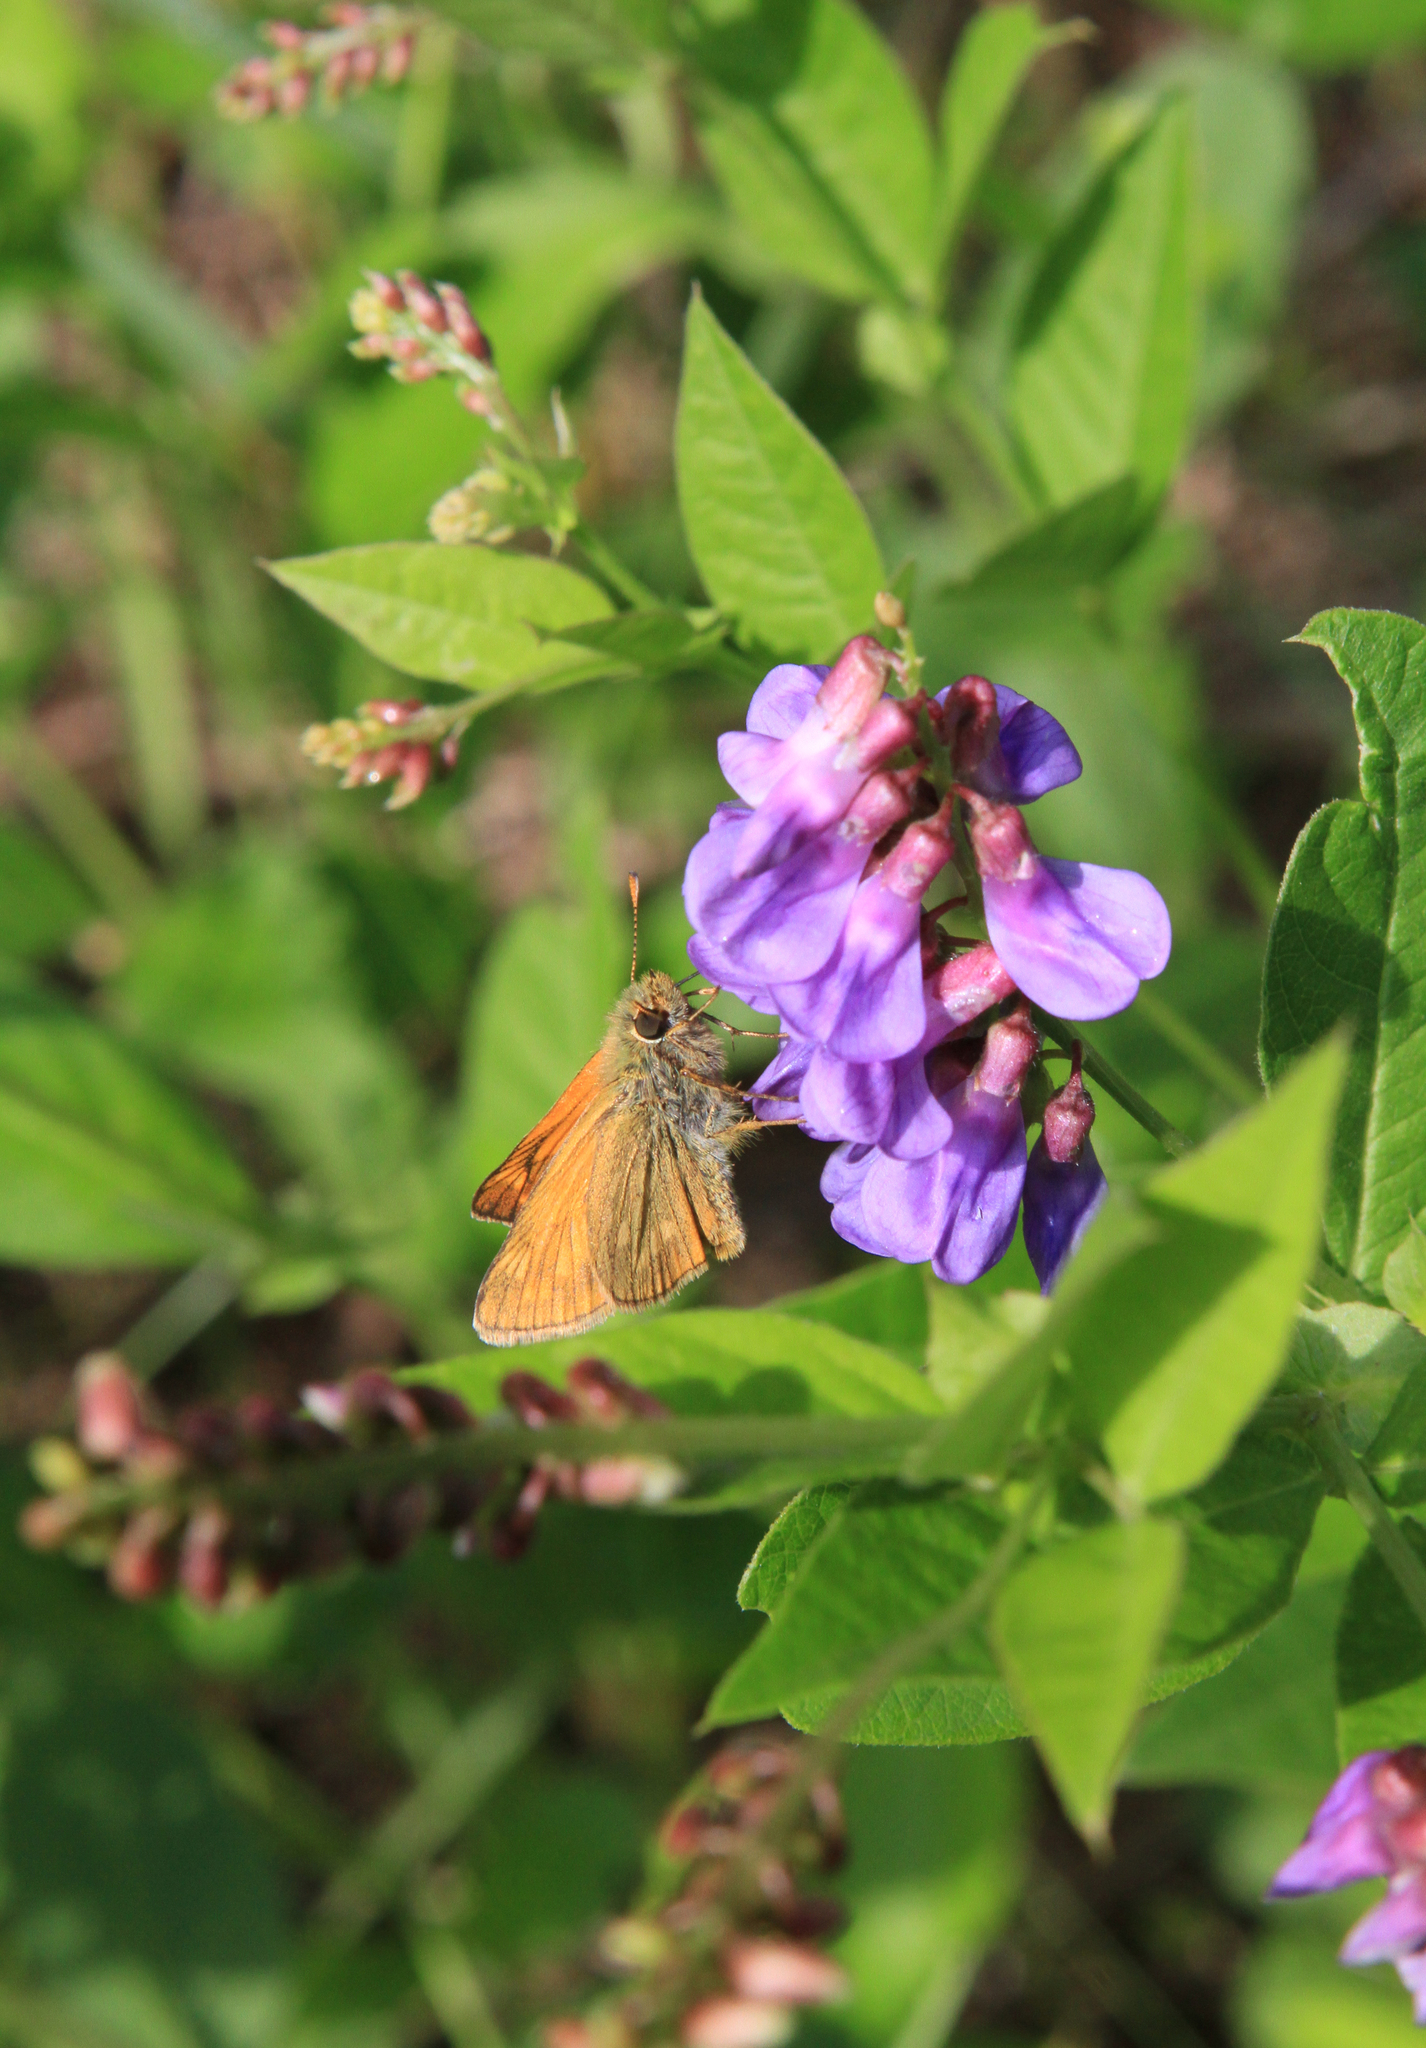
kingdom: Plantae
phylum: Tracheophyta
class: Magnoliopsida
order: Fabales
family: Fabaceae
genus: Vicia
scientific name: Vicia unijuga
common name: Two-leaf vetch
